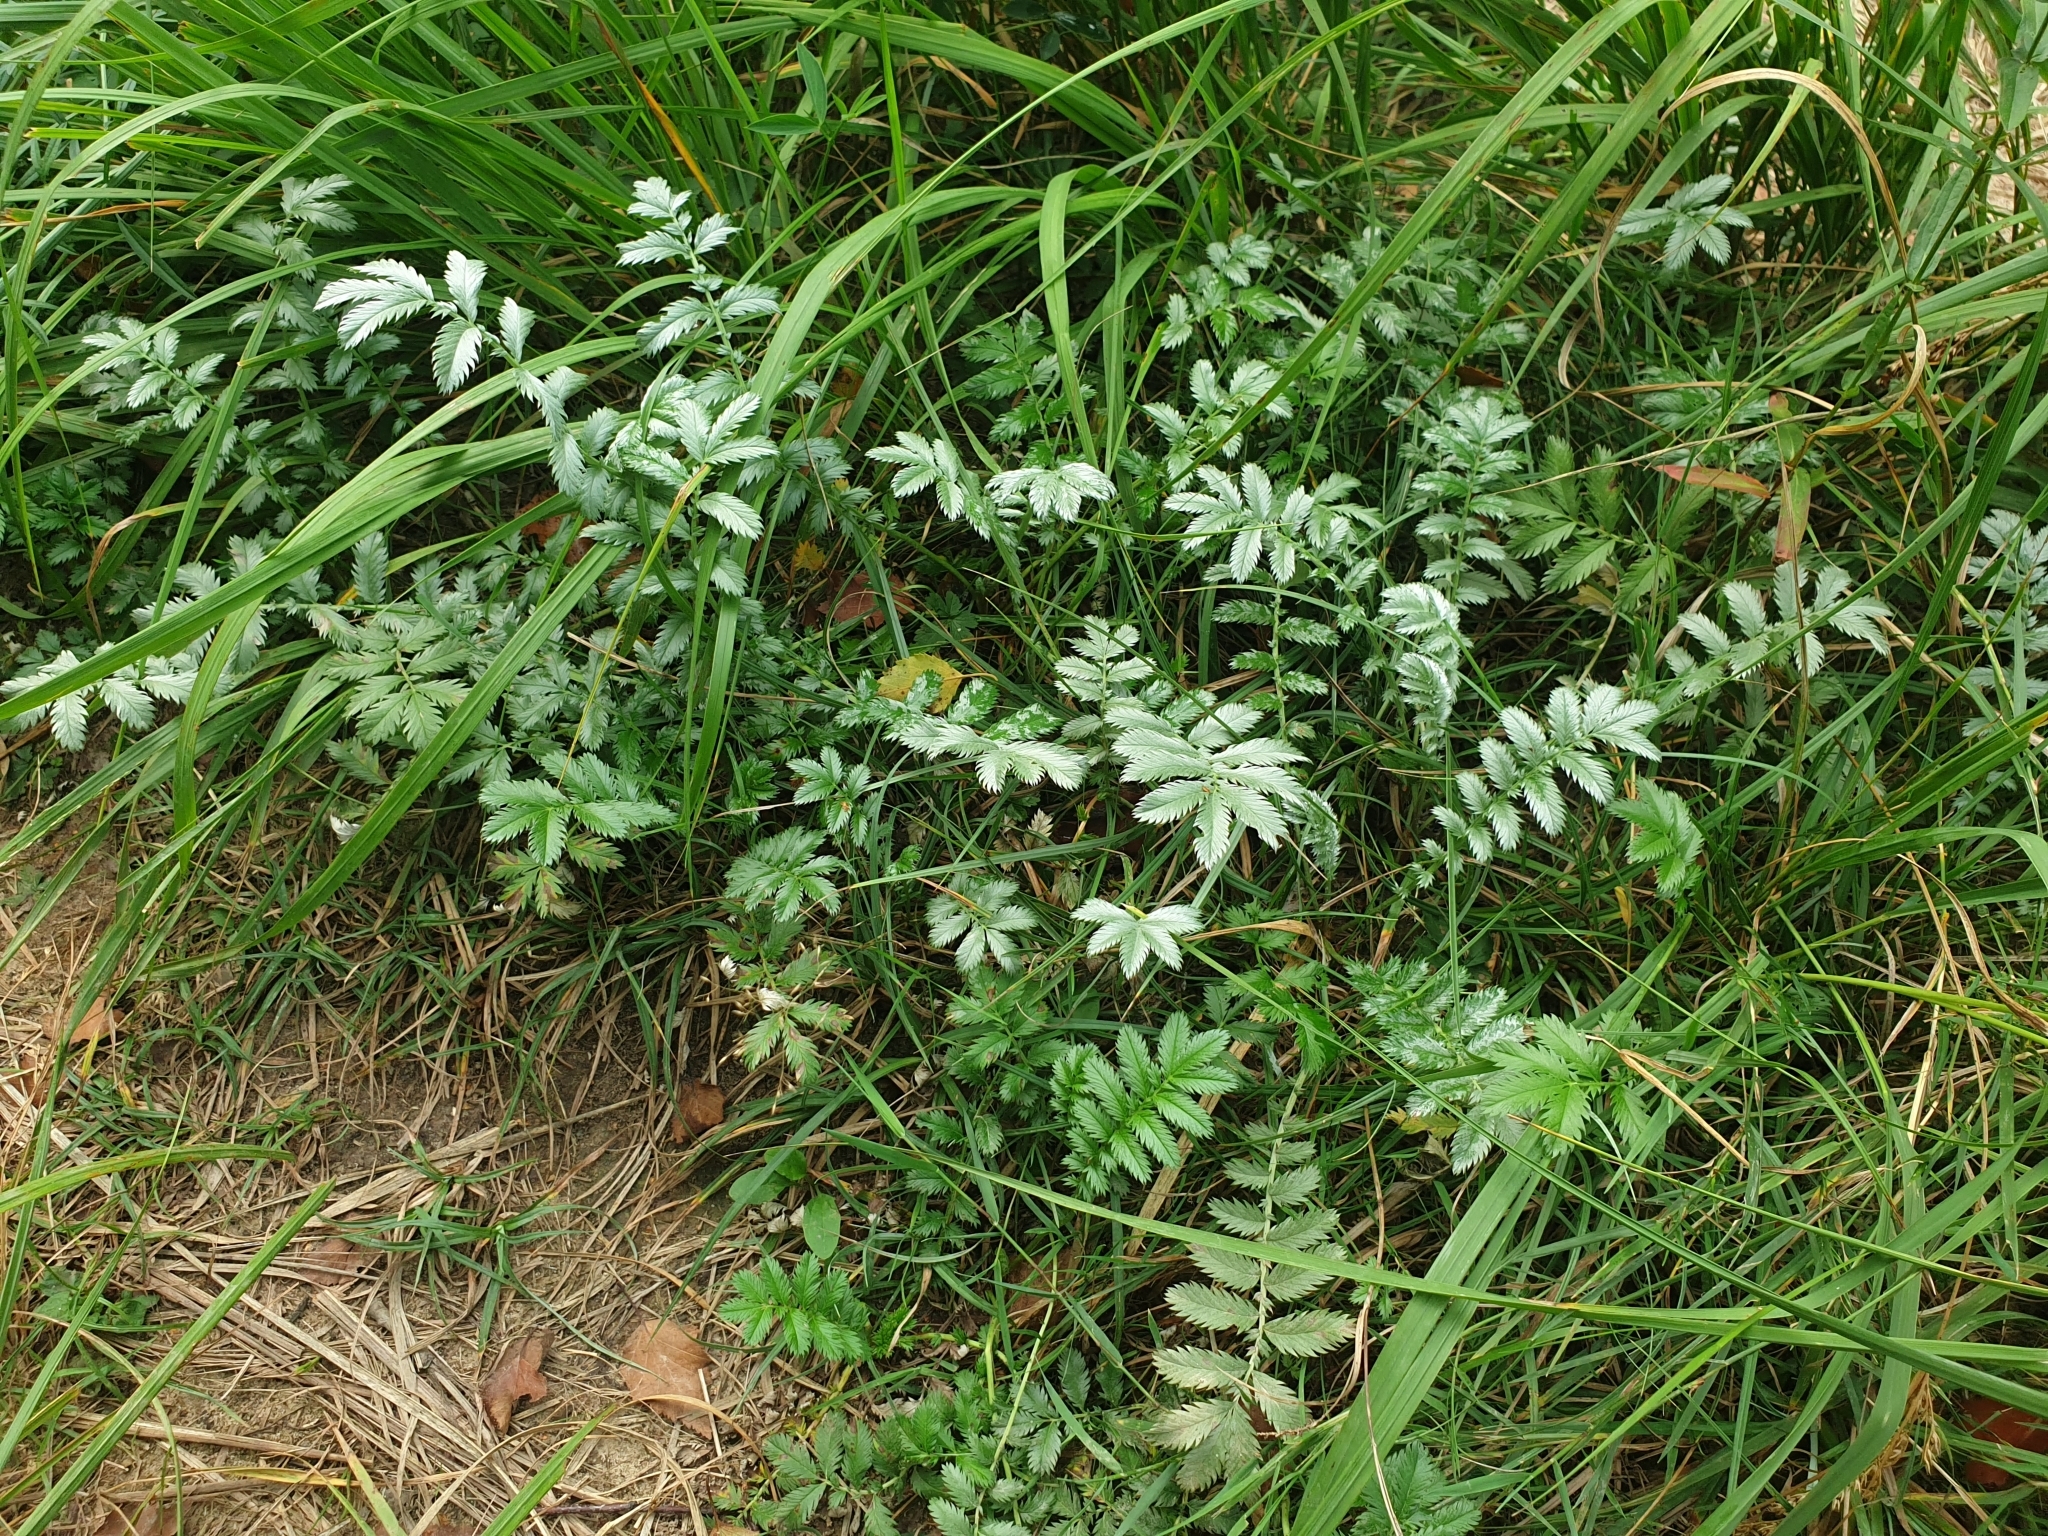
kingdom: Plantae
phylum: Tracheophyta
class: Magnoliopsida
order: Rosales
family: Rosaceae
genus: Argentina
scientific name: Argentina anserina
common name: Common silverweed
